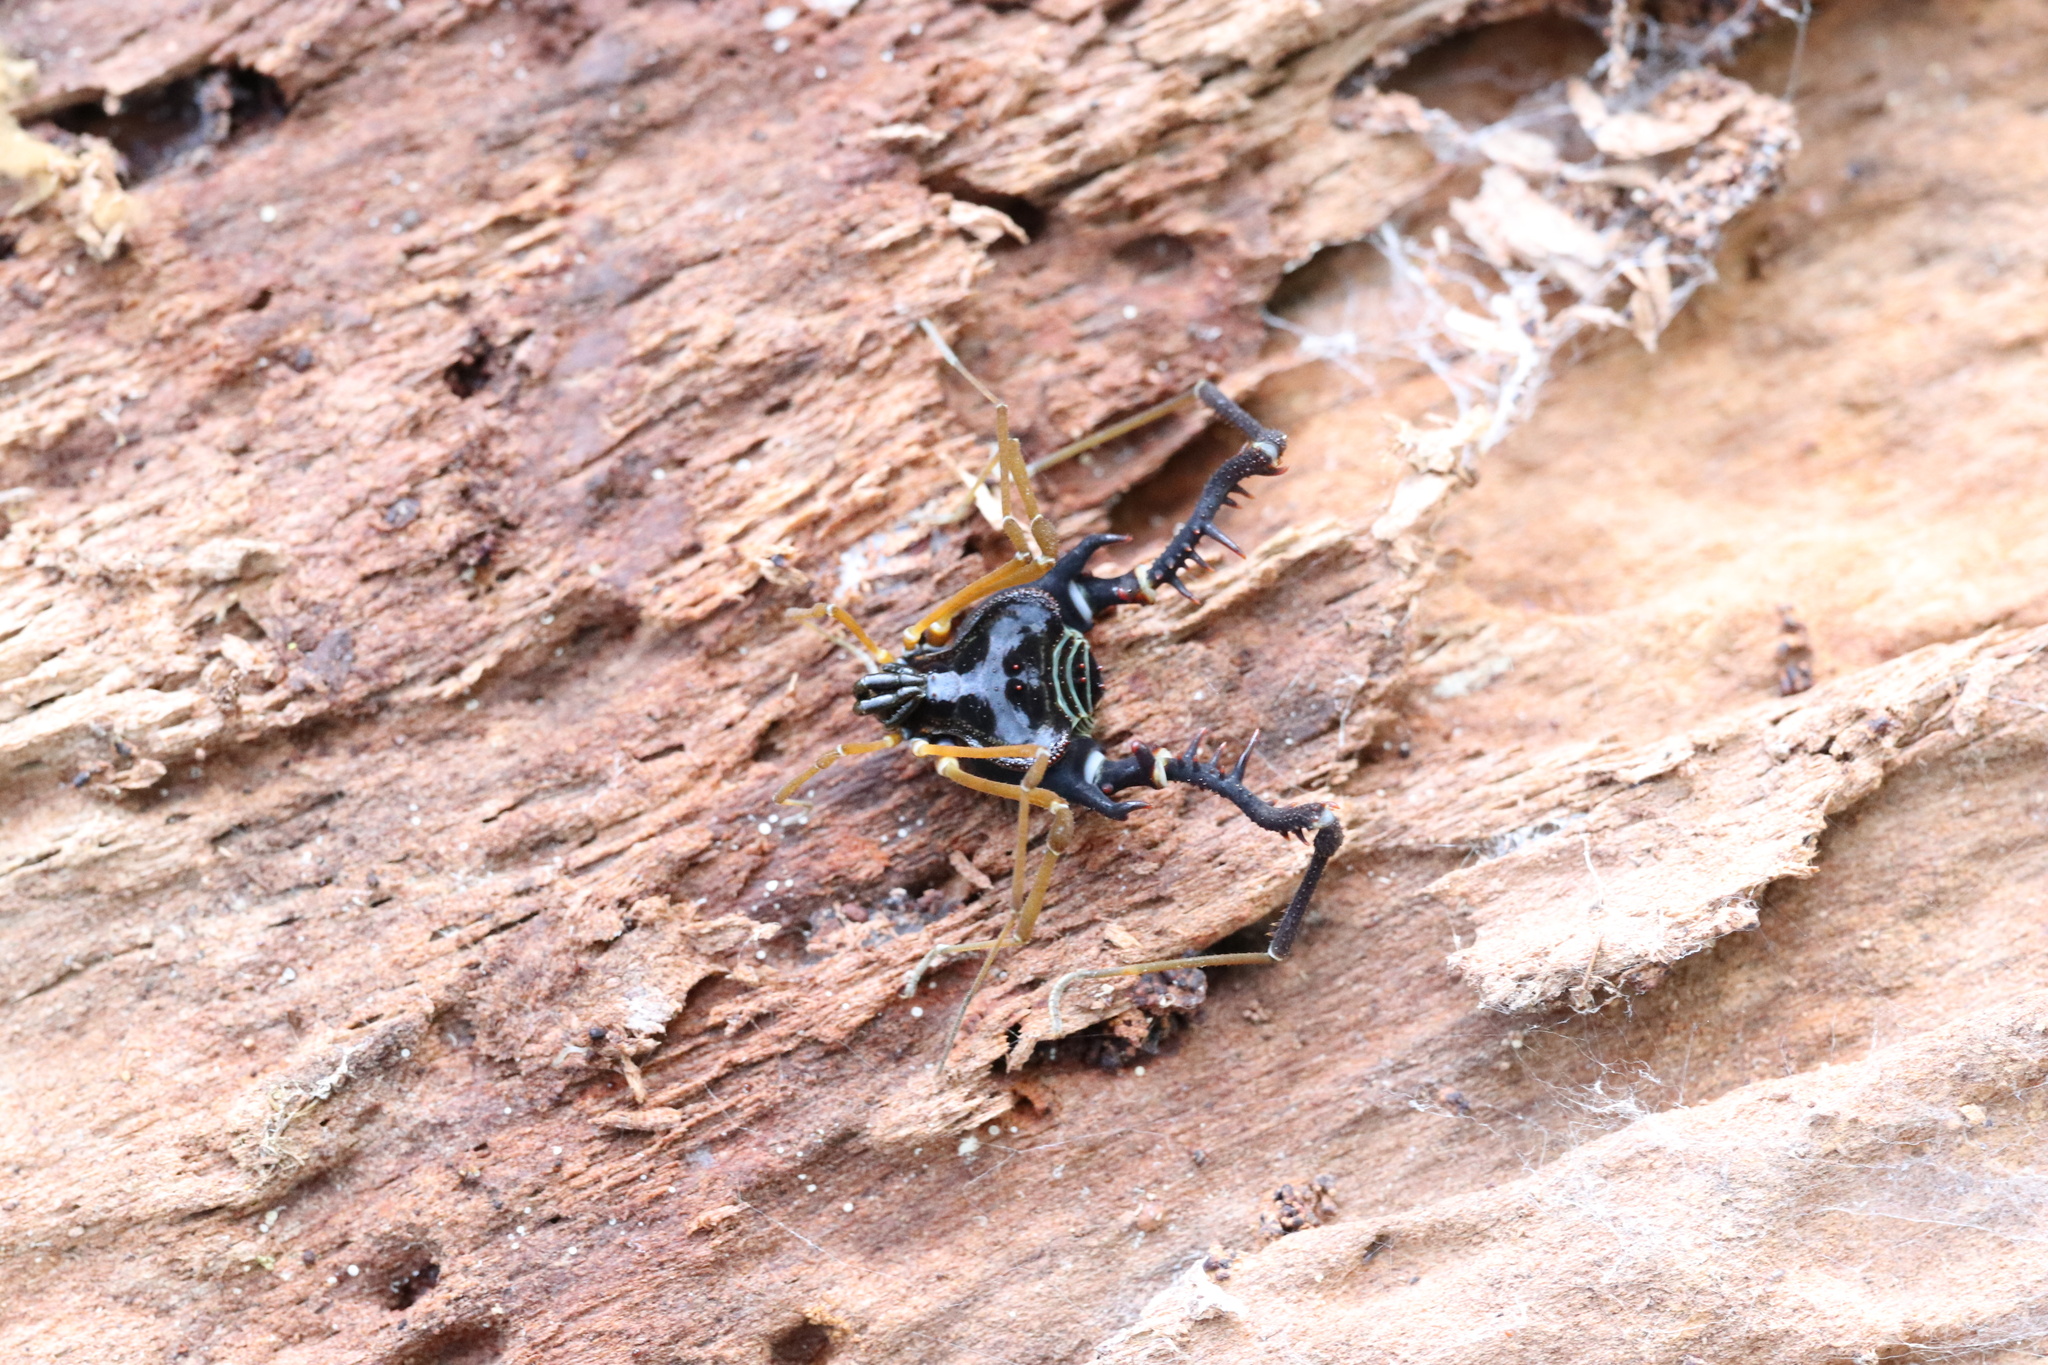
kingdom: Animalia
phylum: Arthropoda
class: Arachnida
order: Opiliones
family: Gonyleptidae
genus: Sadocus
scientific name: Sadocus asperatus
